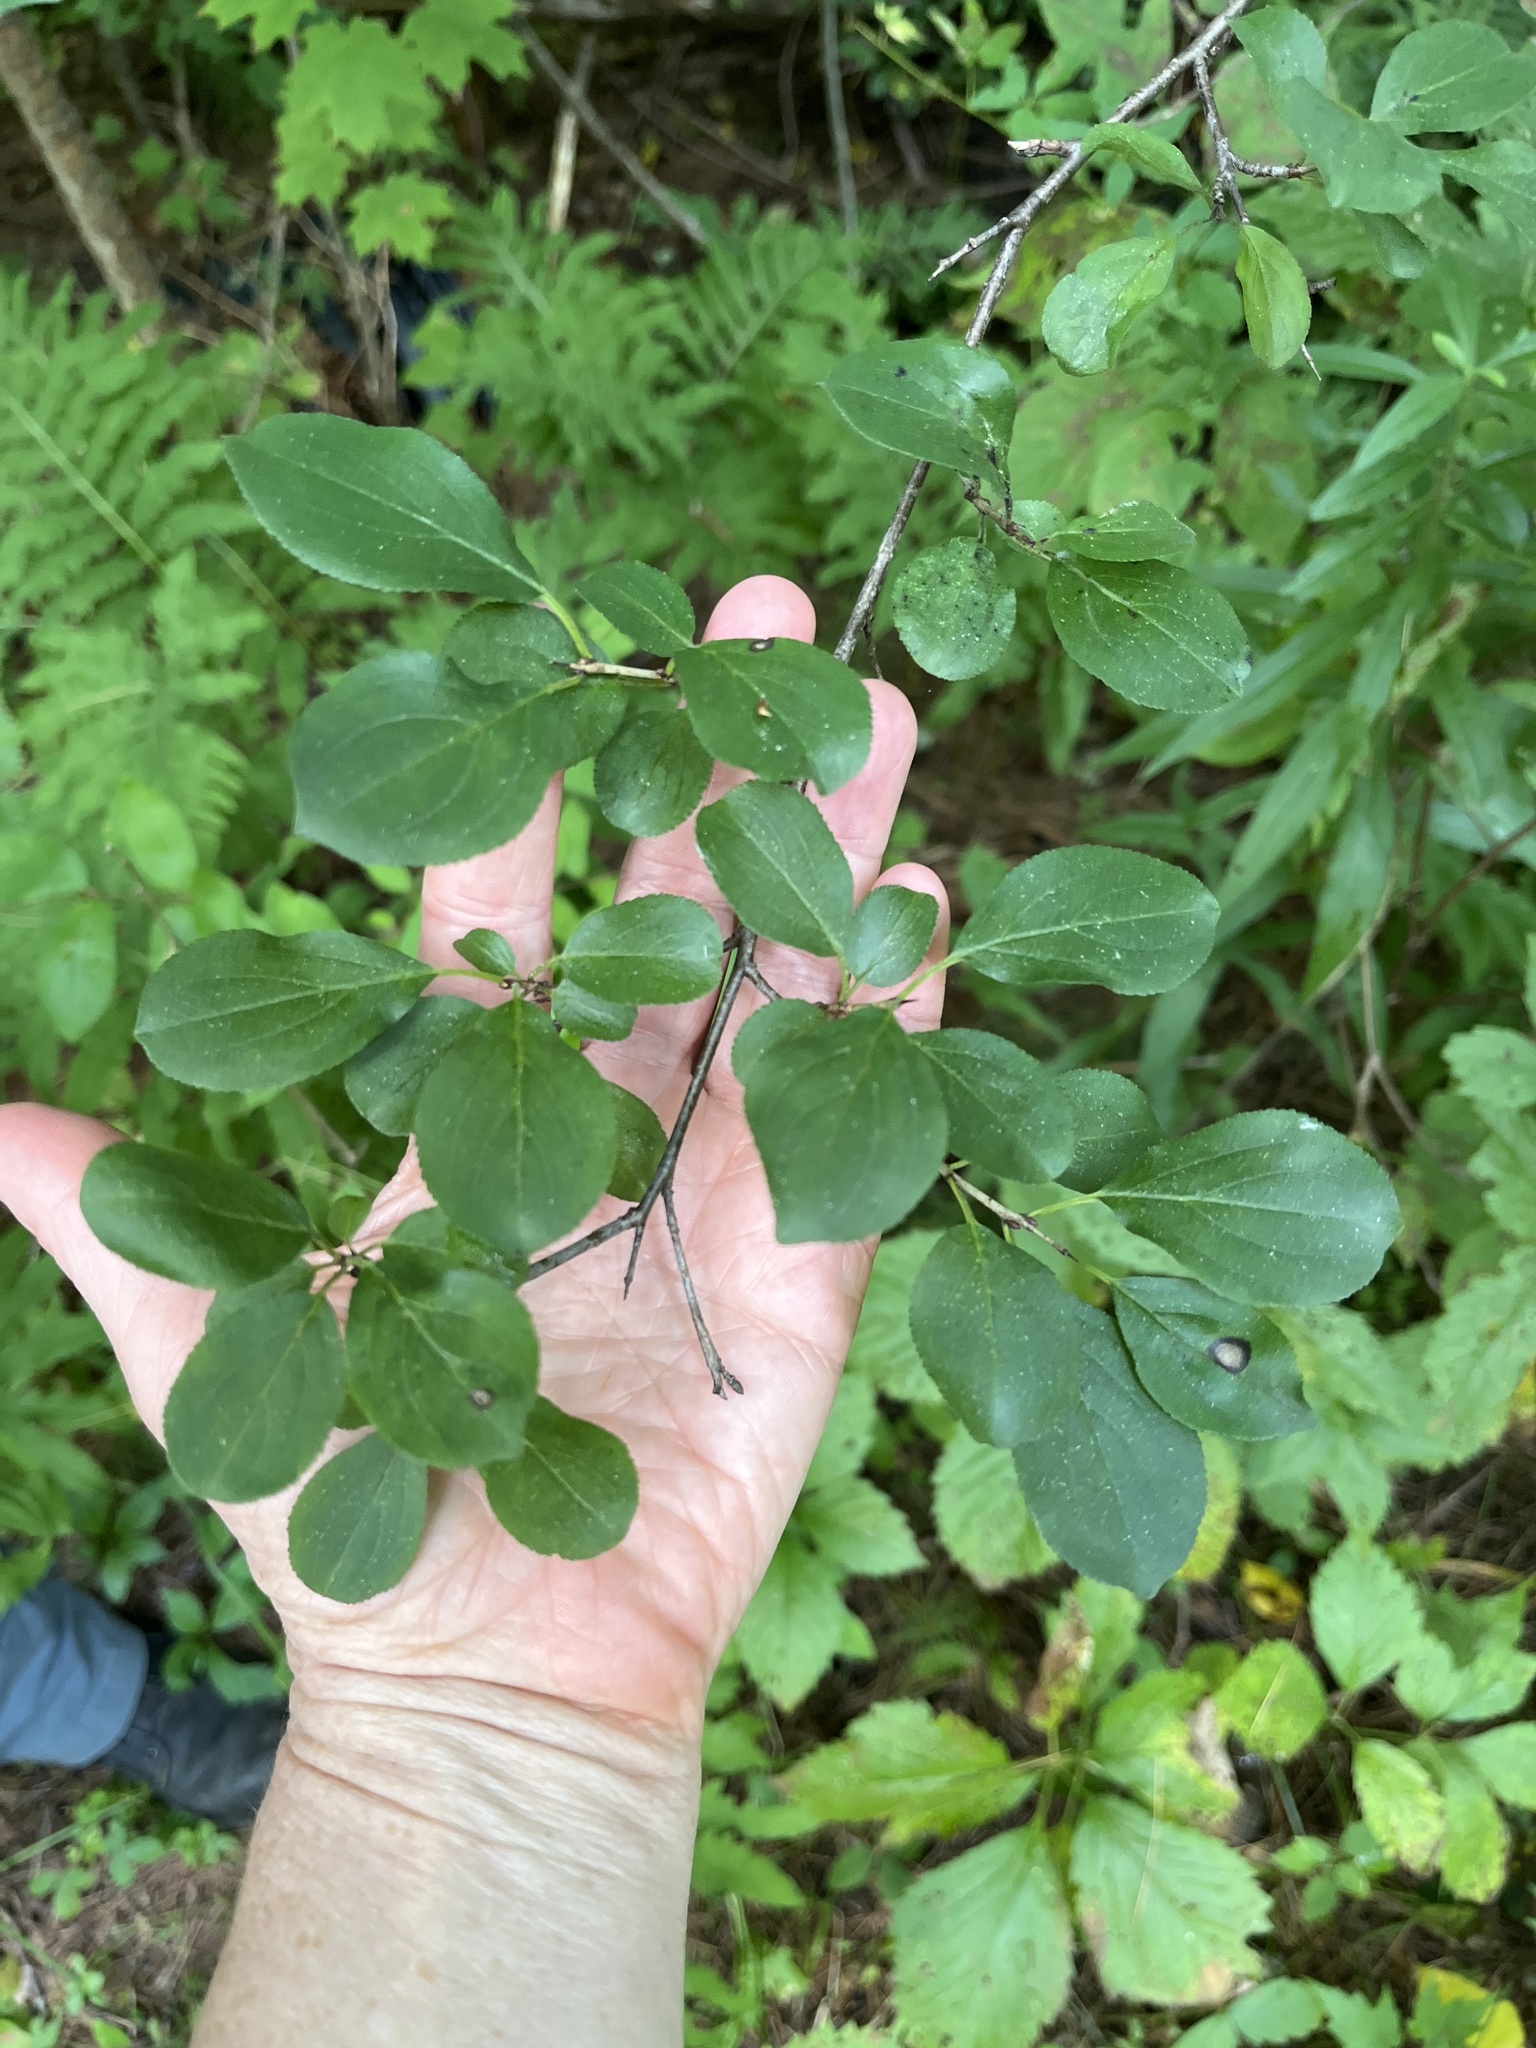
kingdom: Plantae
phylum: Tracheophyta
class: Magnoliopsida
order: Rosales
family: Rhamnaceae
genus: Rhamnus
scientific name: Rhamnus cathartica
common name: Common buckthorn
